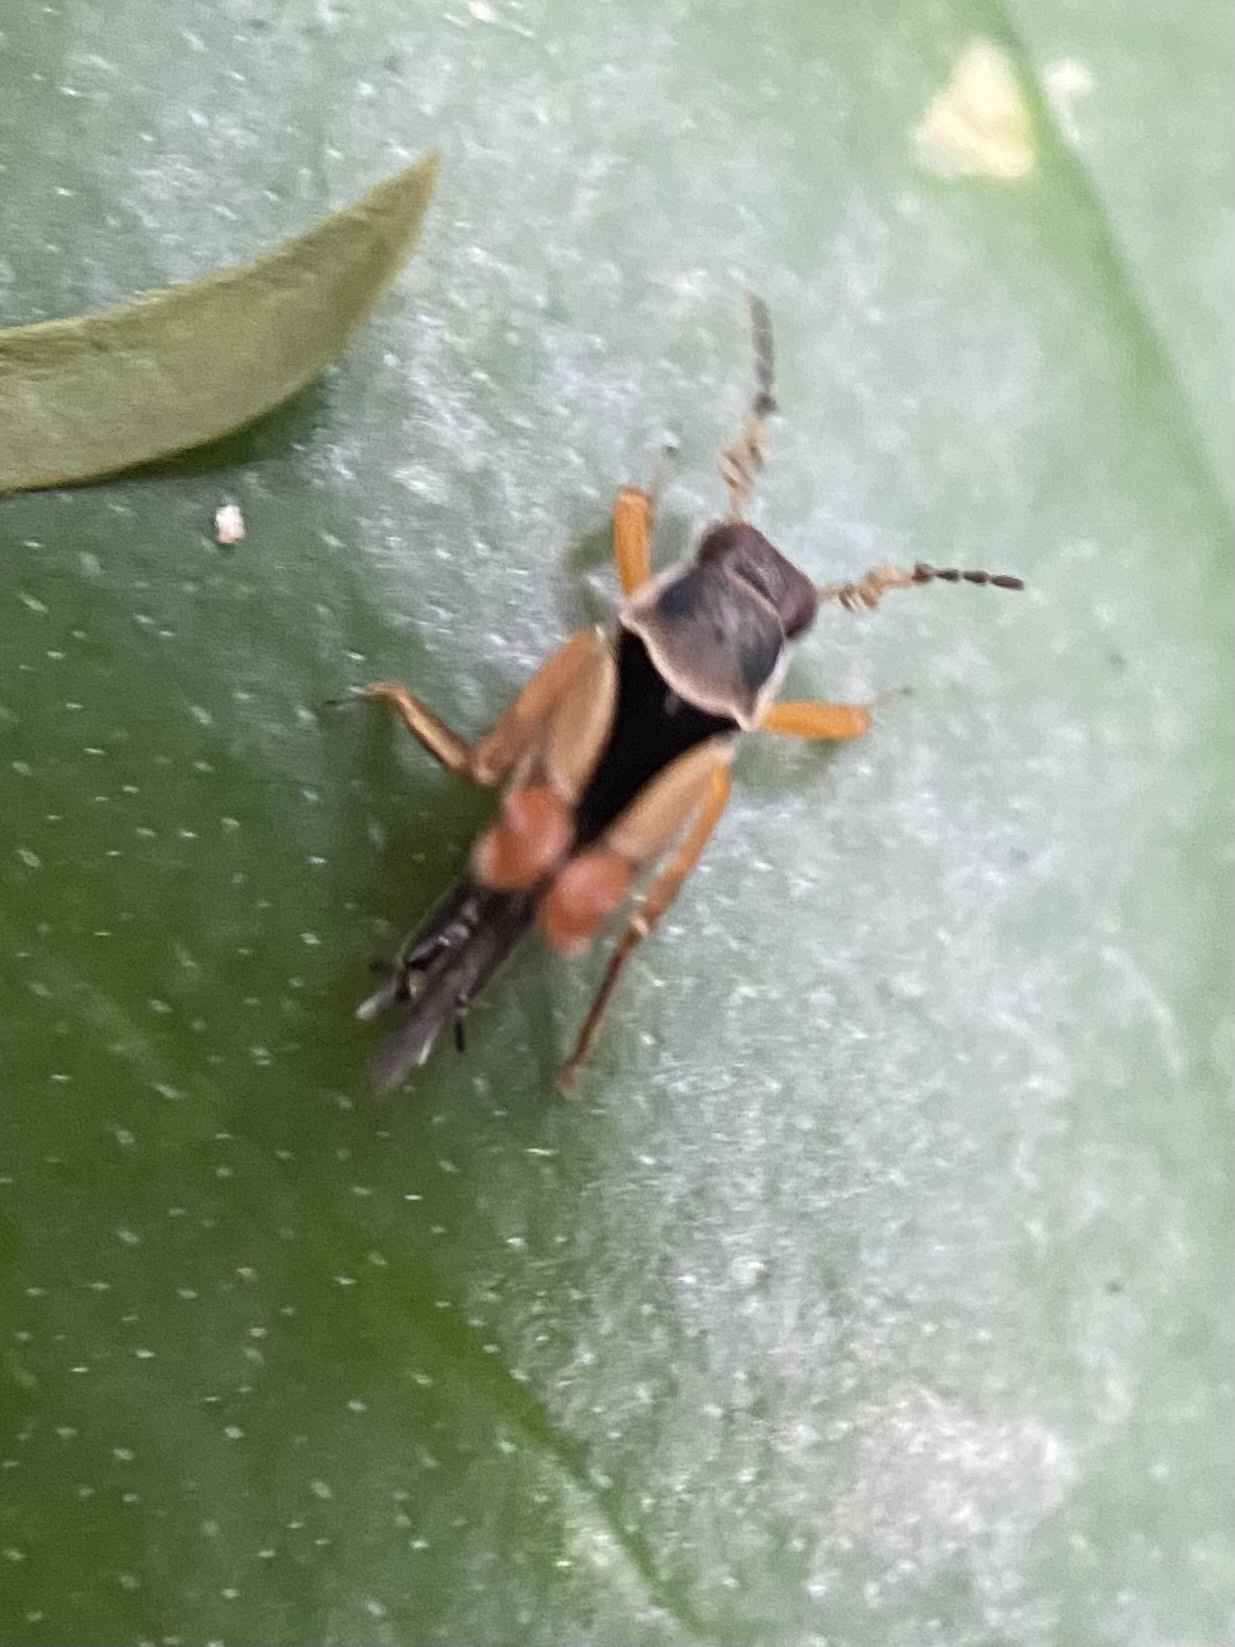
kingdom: Animalia
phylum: Arthropoda
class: Insecta
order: Orthoptera
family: Ripipterygidae
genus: Ripipteryx
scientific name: Ripipteryx insignis
